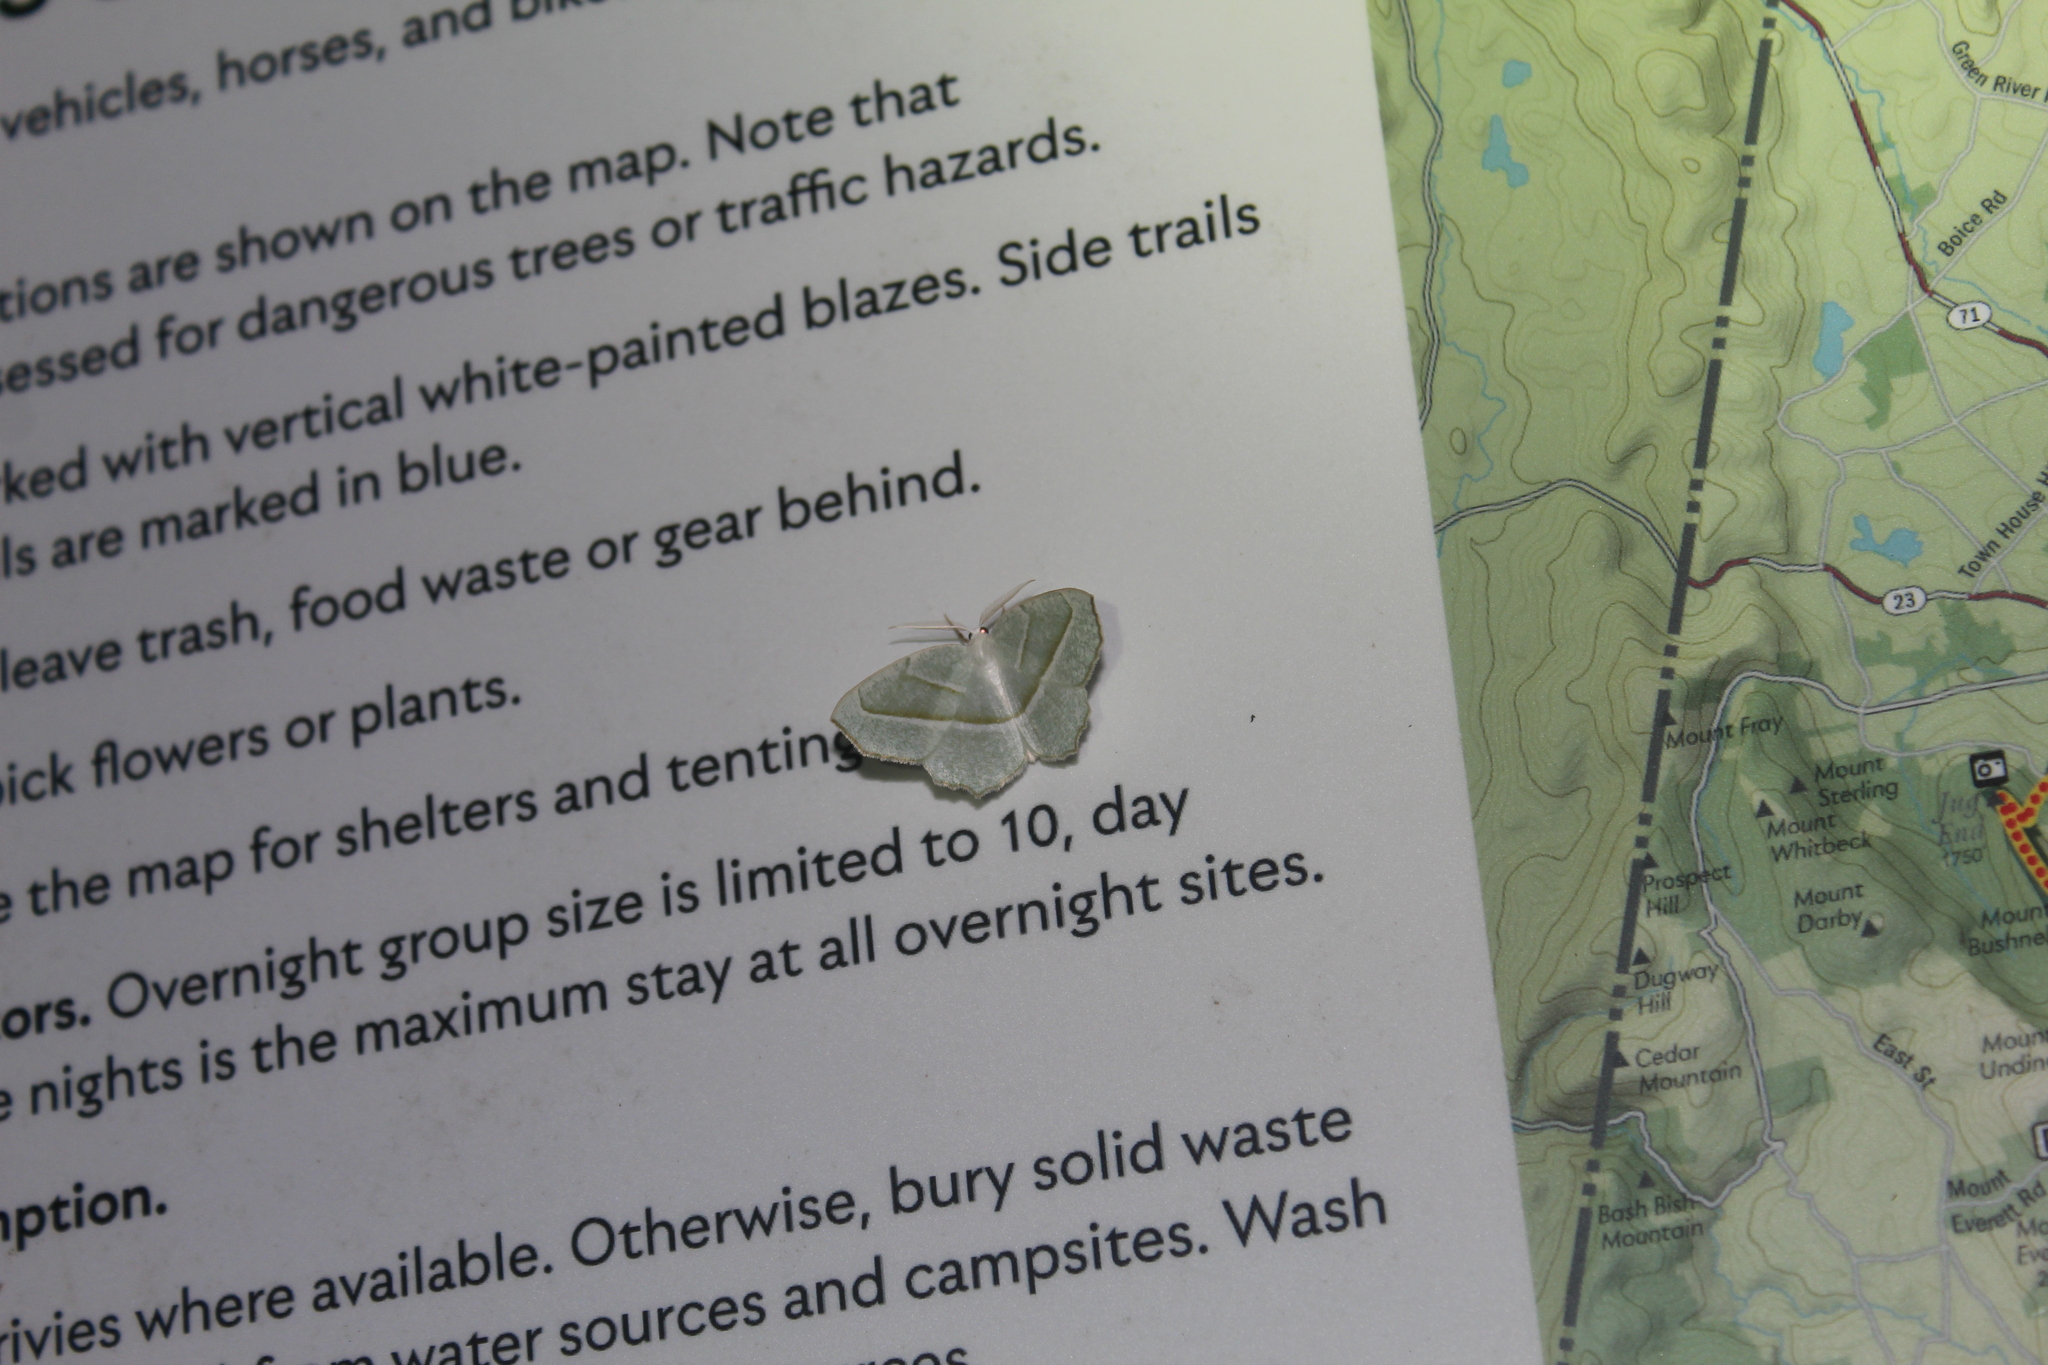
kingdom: Animalia
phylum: Arthropoda
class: Insecta
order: Lepidoptera
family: Geometridae
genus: Campaea
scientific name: Campaea perlata
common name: Fringed looper
